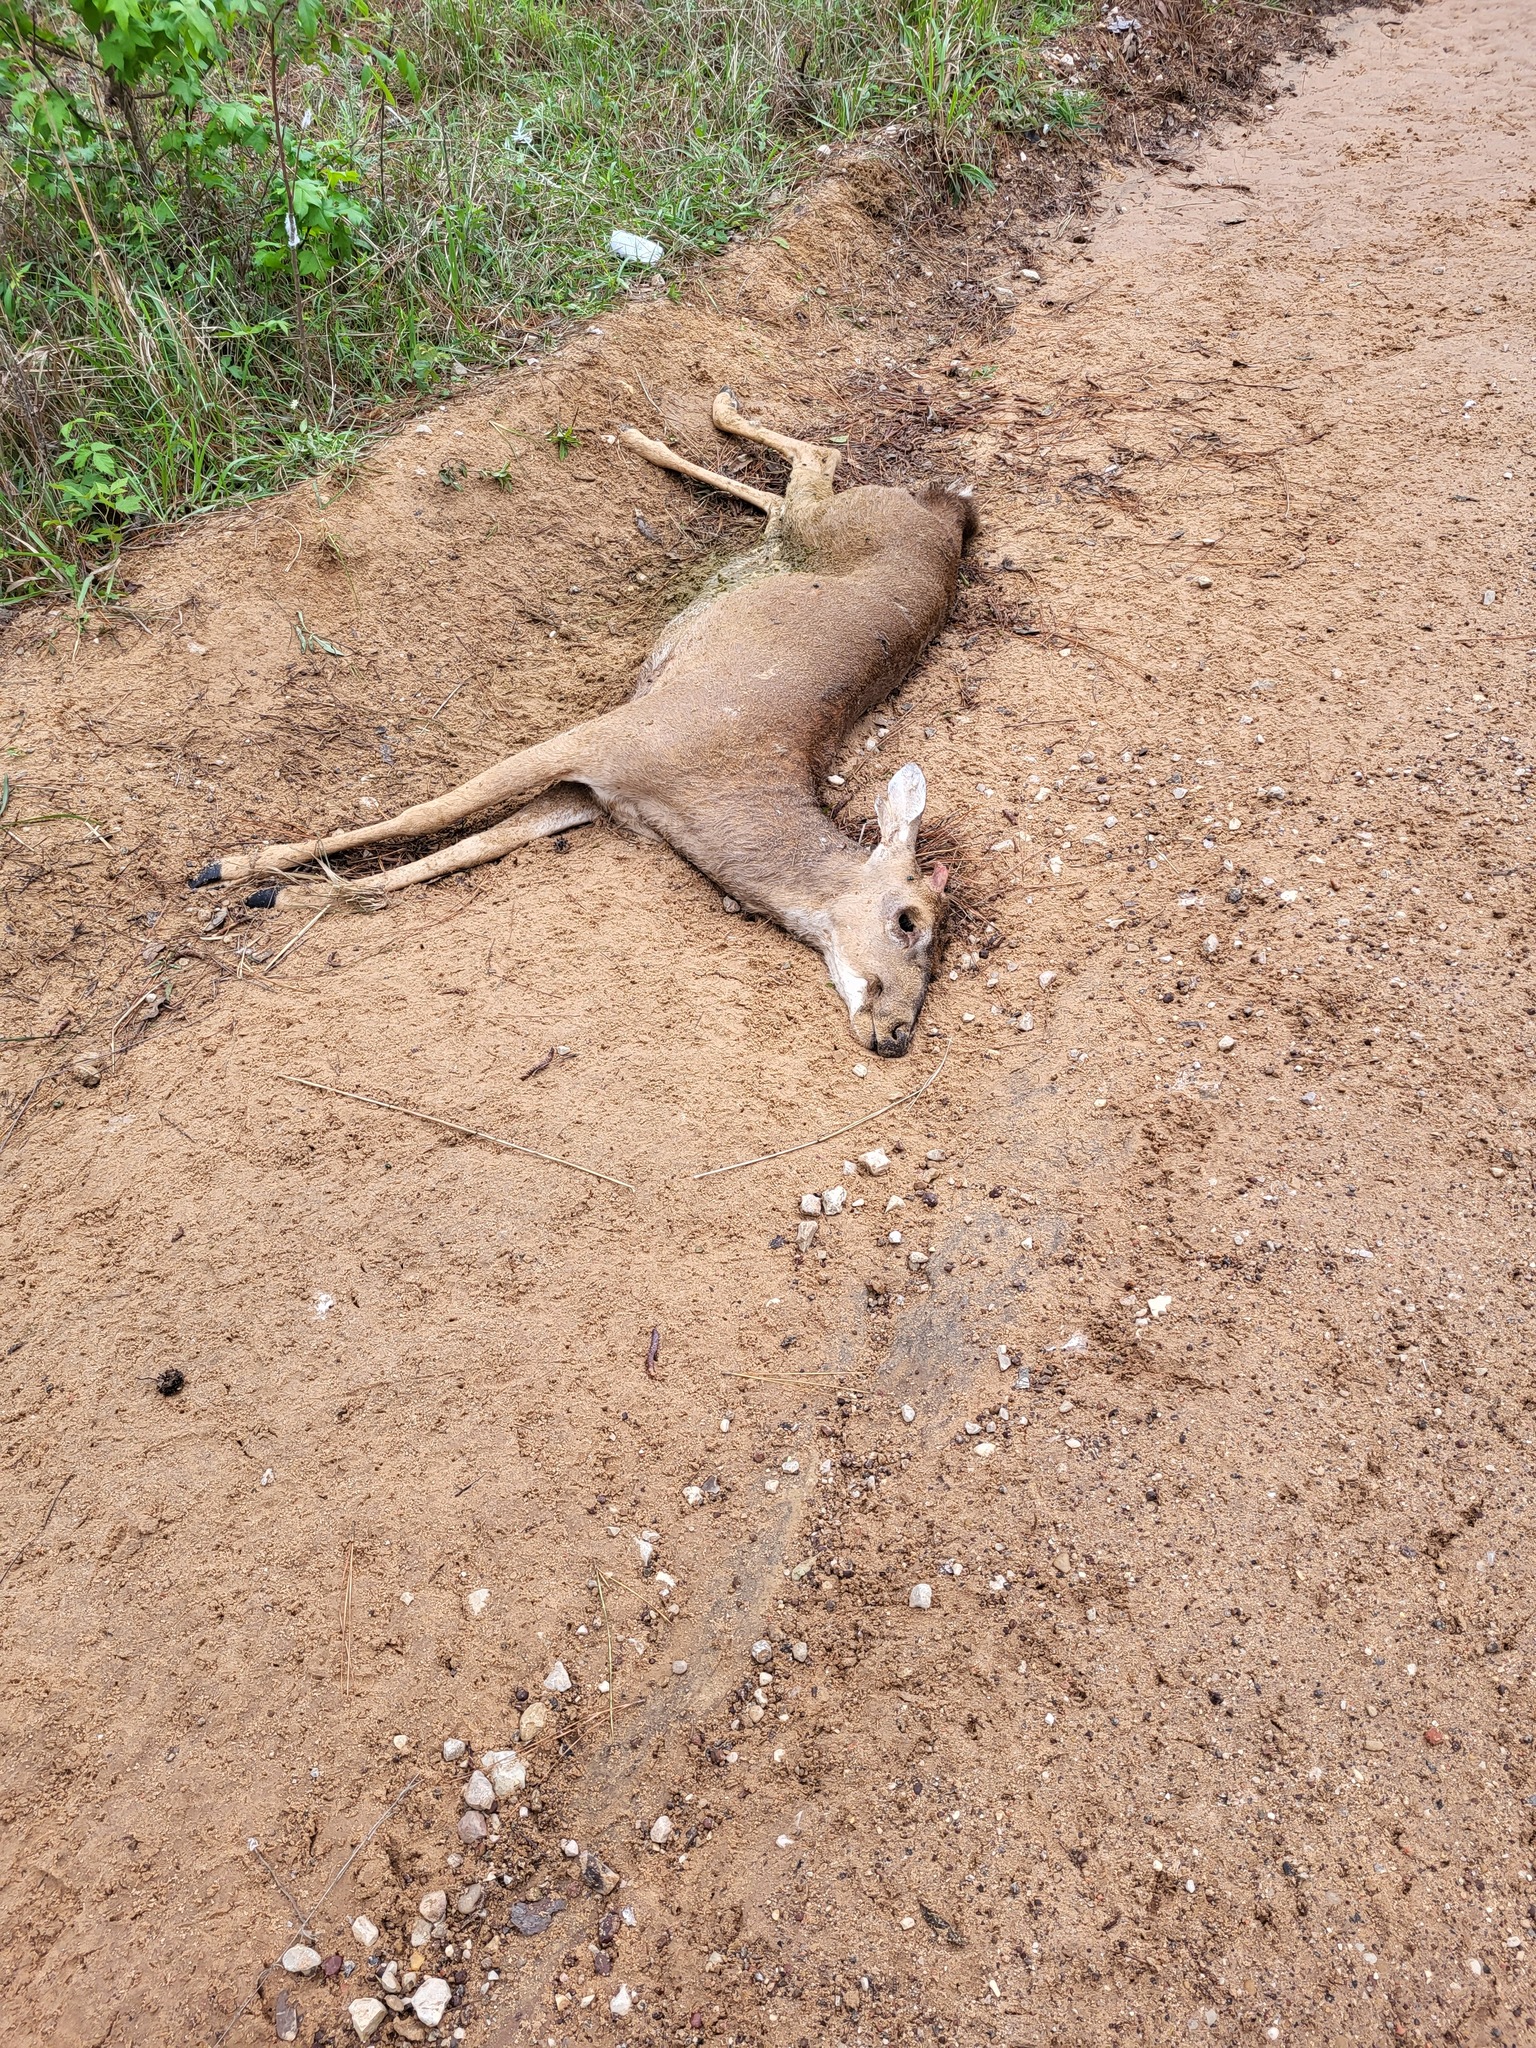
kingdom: Animalia
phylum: Chordata
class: Mammalia
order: Artiodactyla
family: Cervidae
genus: Odocoileus
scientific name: Odocoileus virginianus
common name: White-tailed deer
